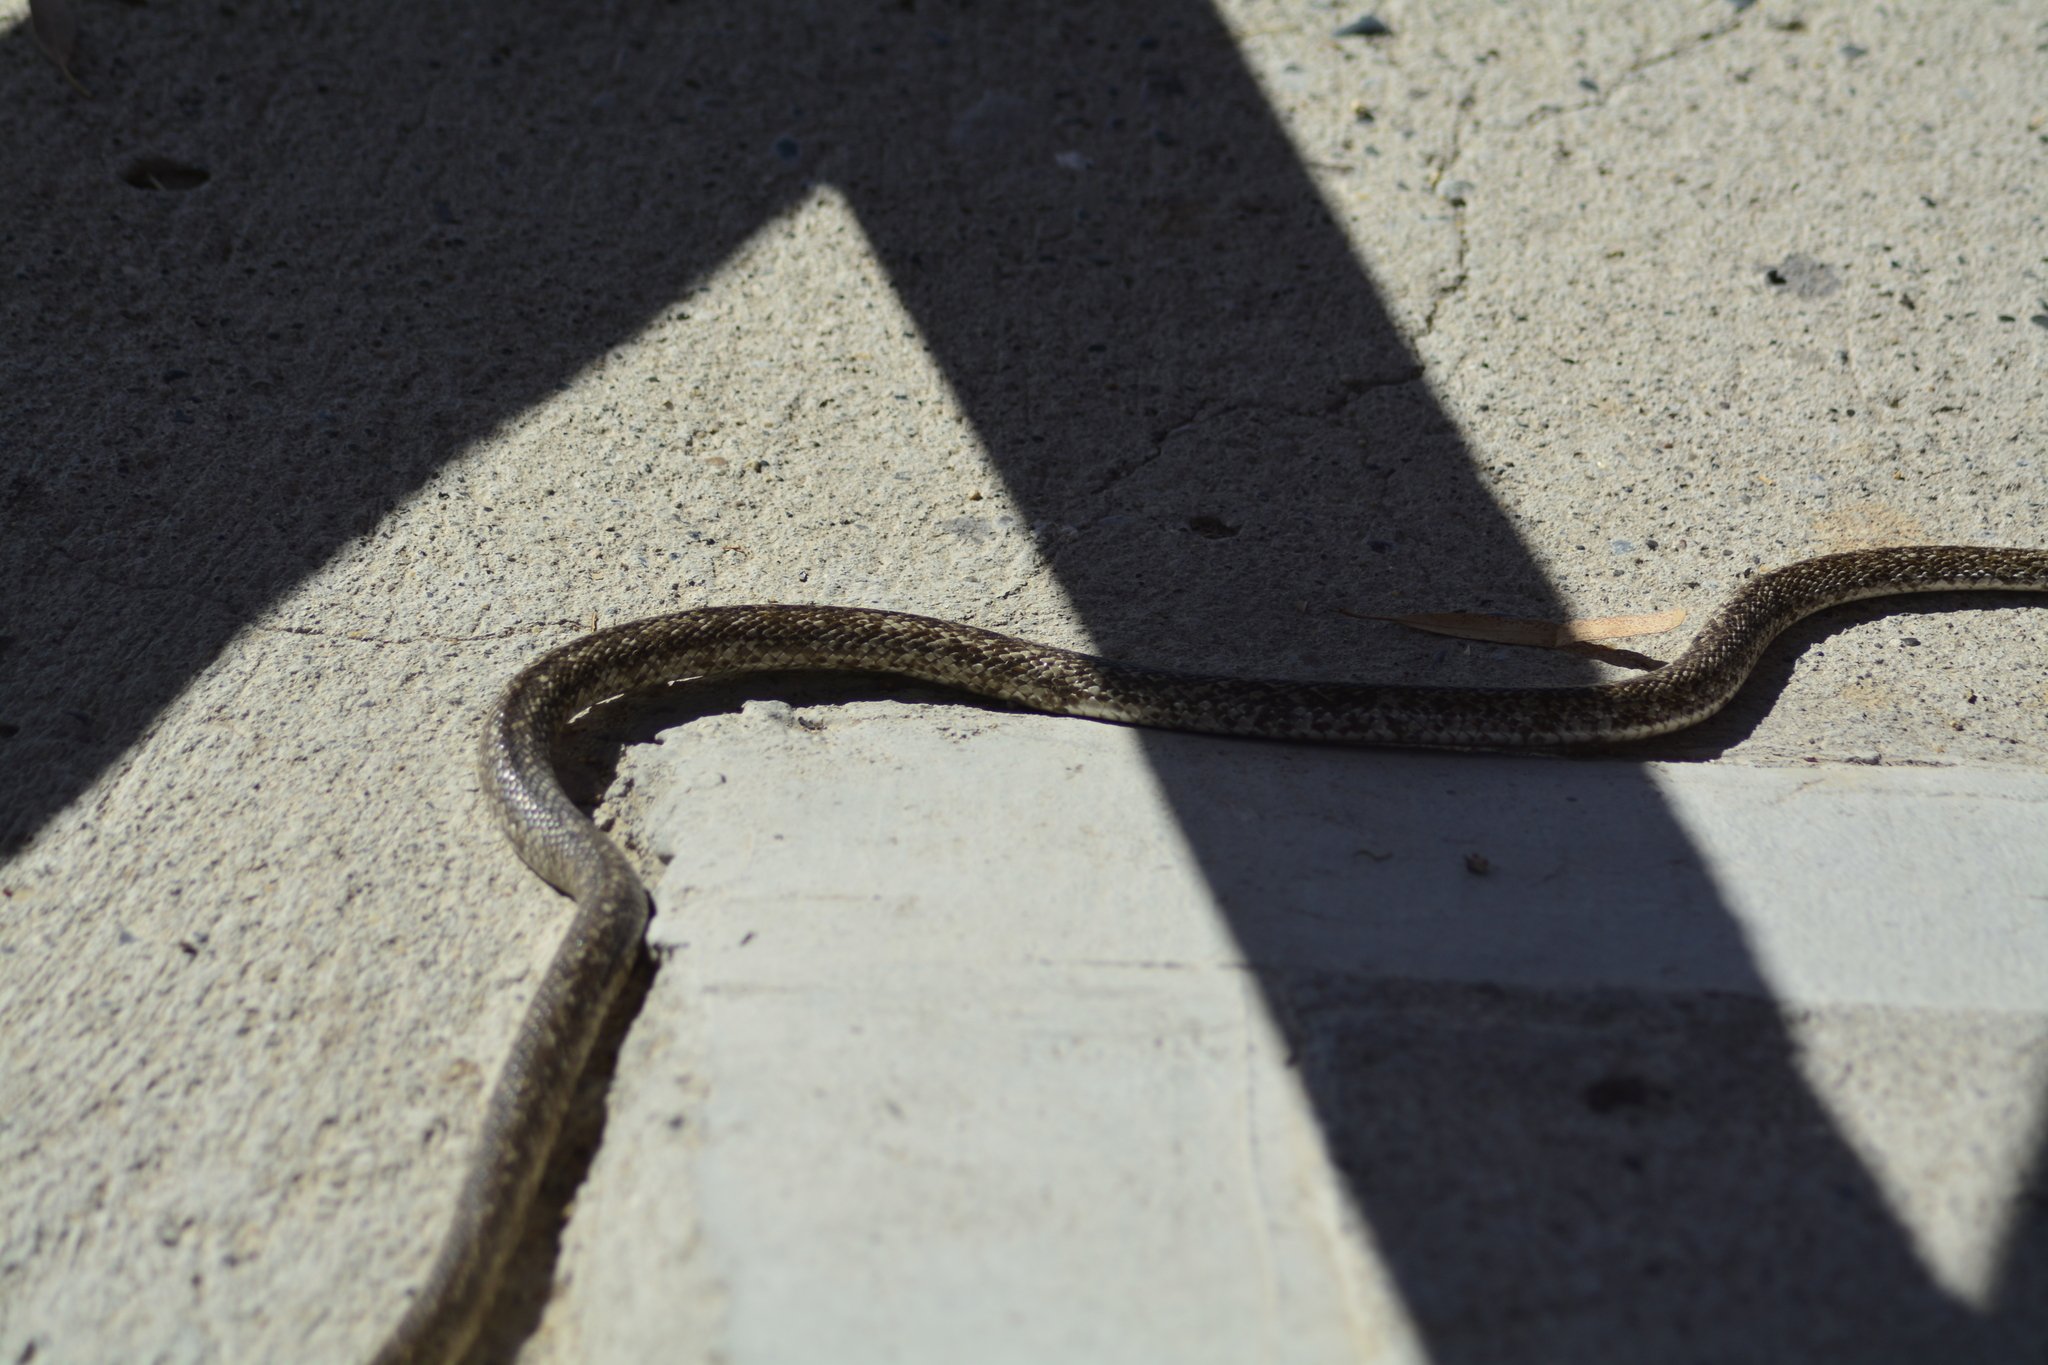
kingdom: Animalia
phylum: Chordata
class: Squamata
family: Colubridae
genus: Philodryas
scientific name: Philodryas trilineata
